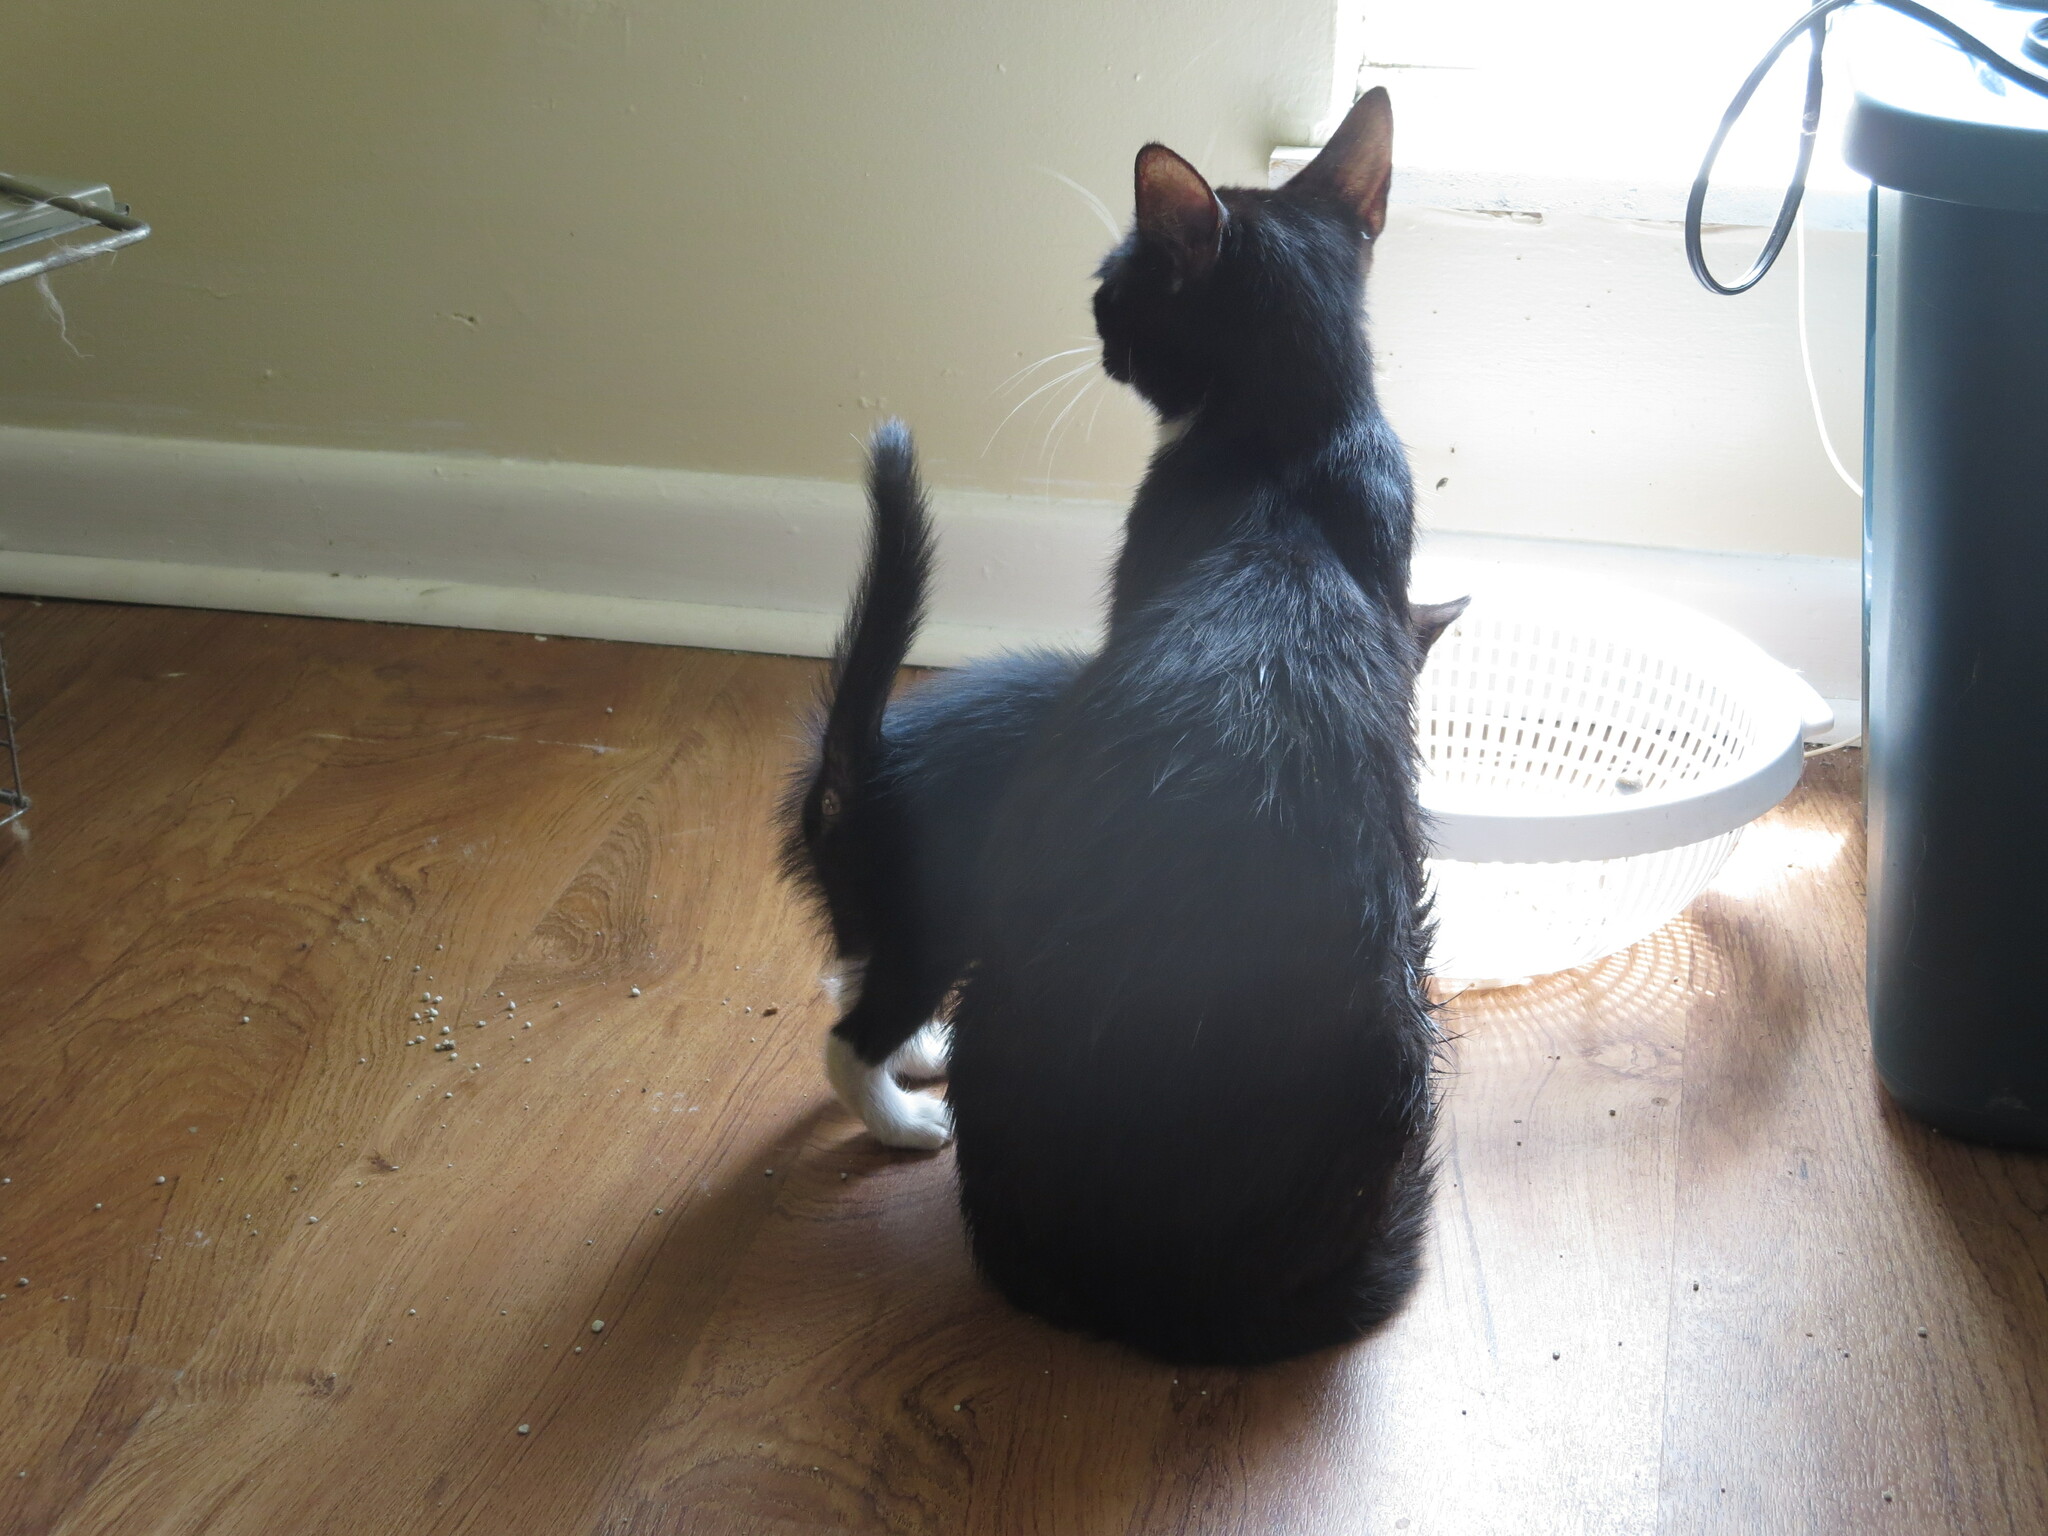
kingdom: Animalia
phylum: Chordata
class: Mammalia
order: Carnivora
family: Felidae
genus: Felis
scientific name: Felis catus
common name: Domestic cat
